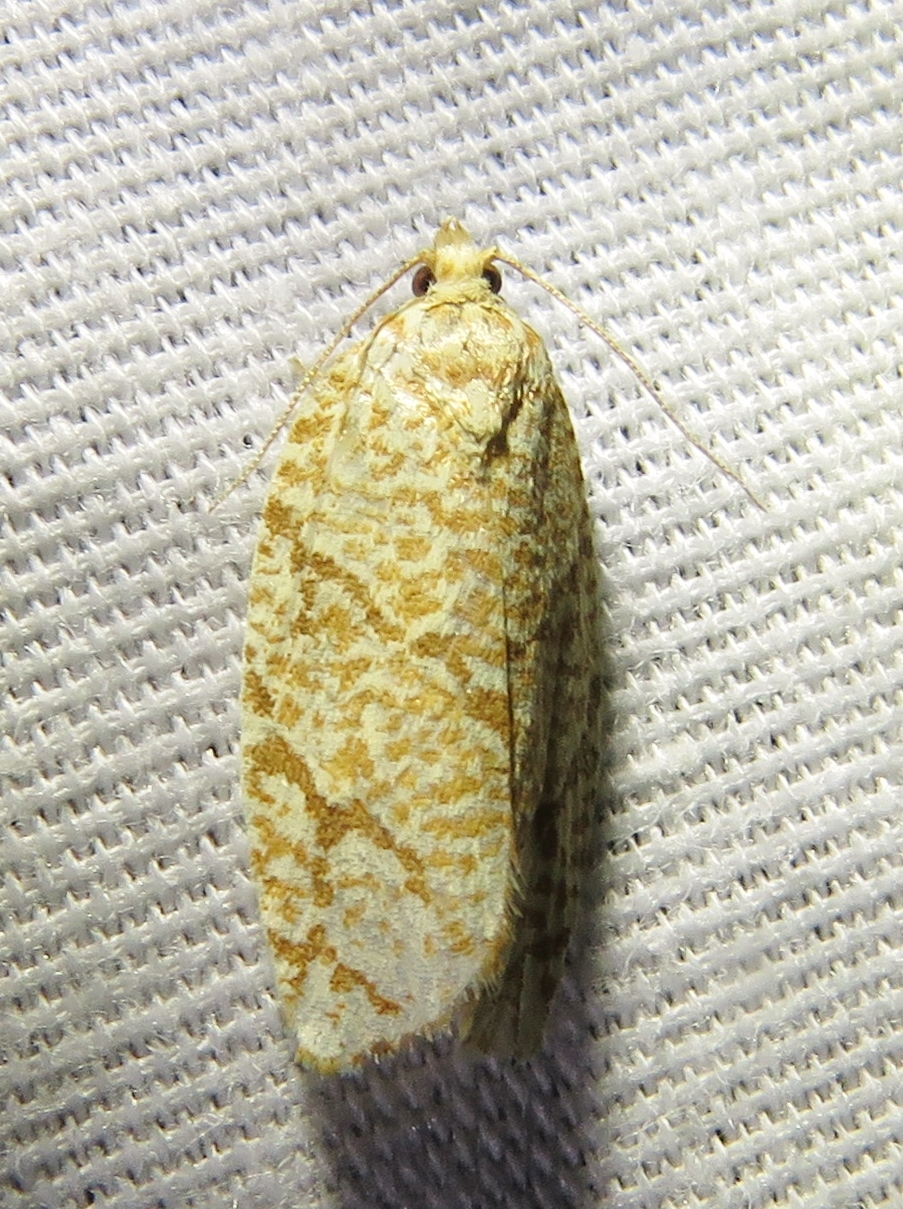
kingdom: Animalia
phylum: Arthropoda
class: Insecta
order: Lepidoptera
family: Tortricidae
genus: Argyrotaenia
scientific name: Argyrotaenia quercifoliana
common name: Yellow-winged oak leafroller moth
